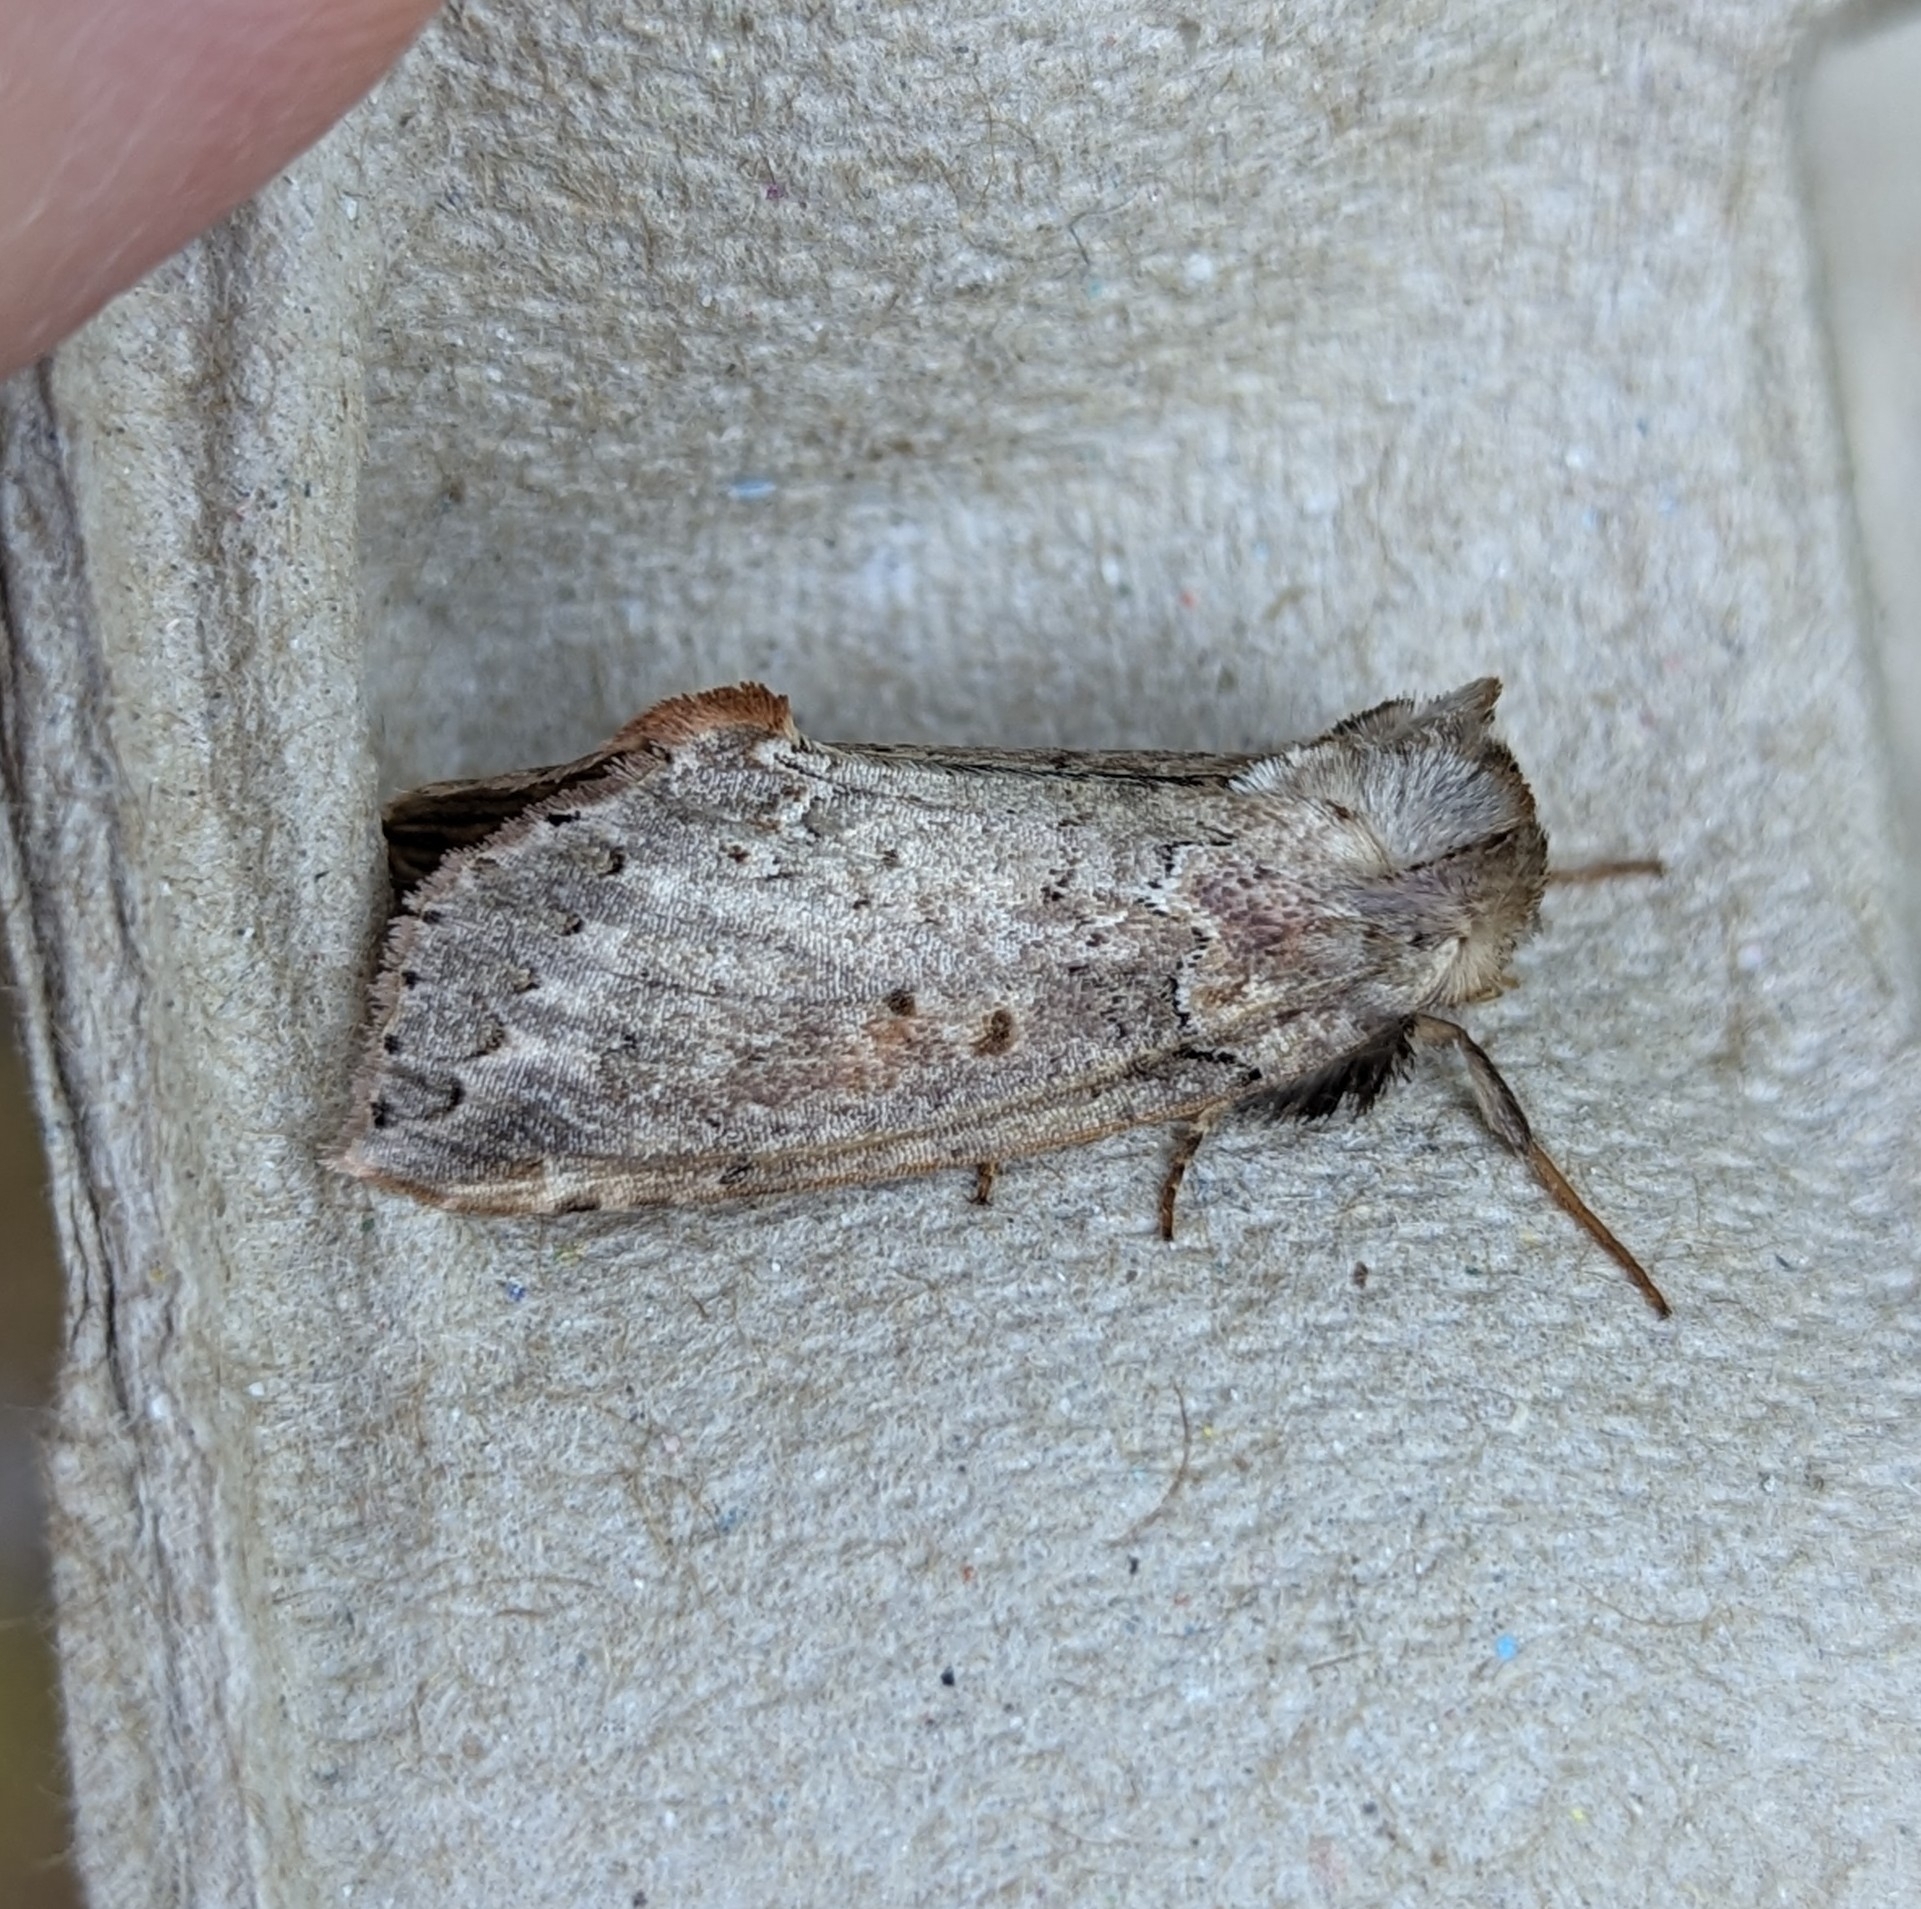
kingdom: Animalia
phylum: Arthropoda
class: Insecta
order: Lepidoptera
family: Drepanidae
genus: Pseudothyatira
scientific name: Pseudothyatira cymatophoroides
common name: Tufted thyatirid moth
